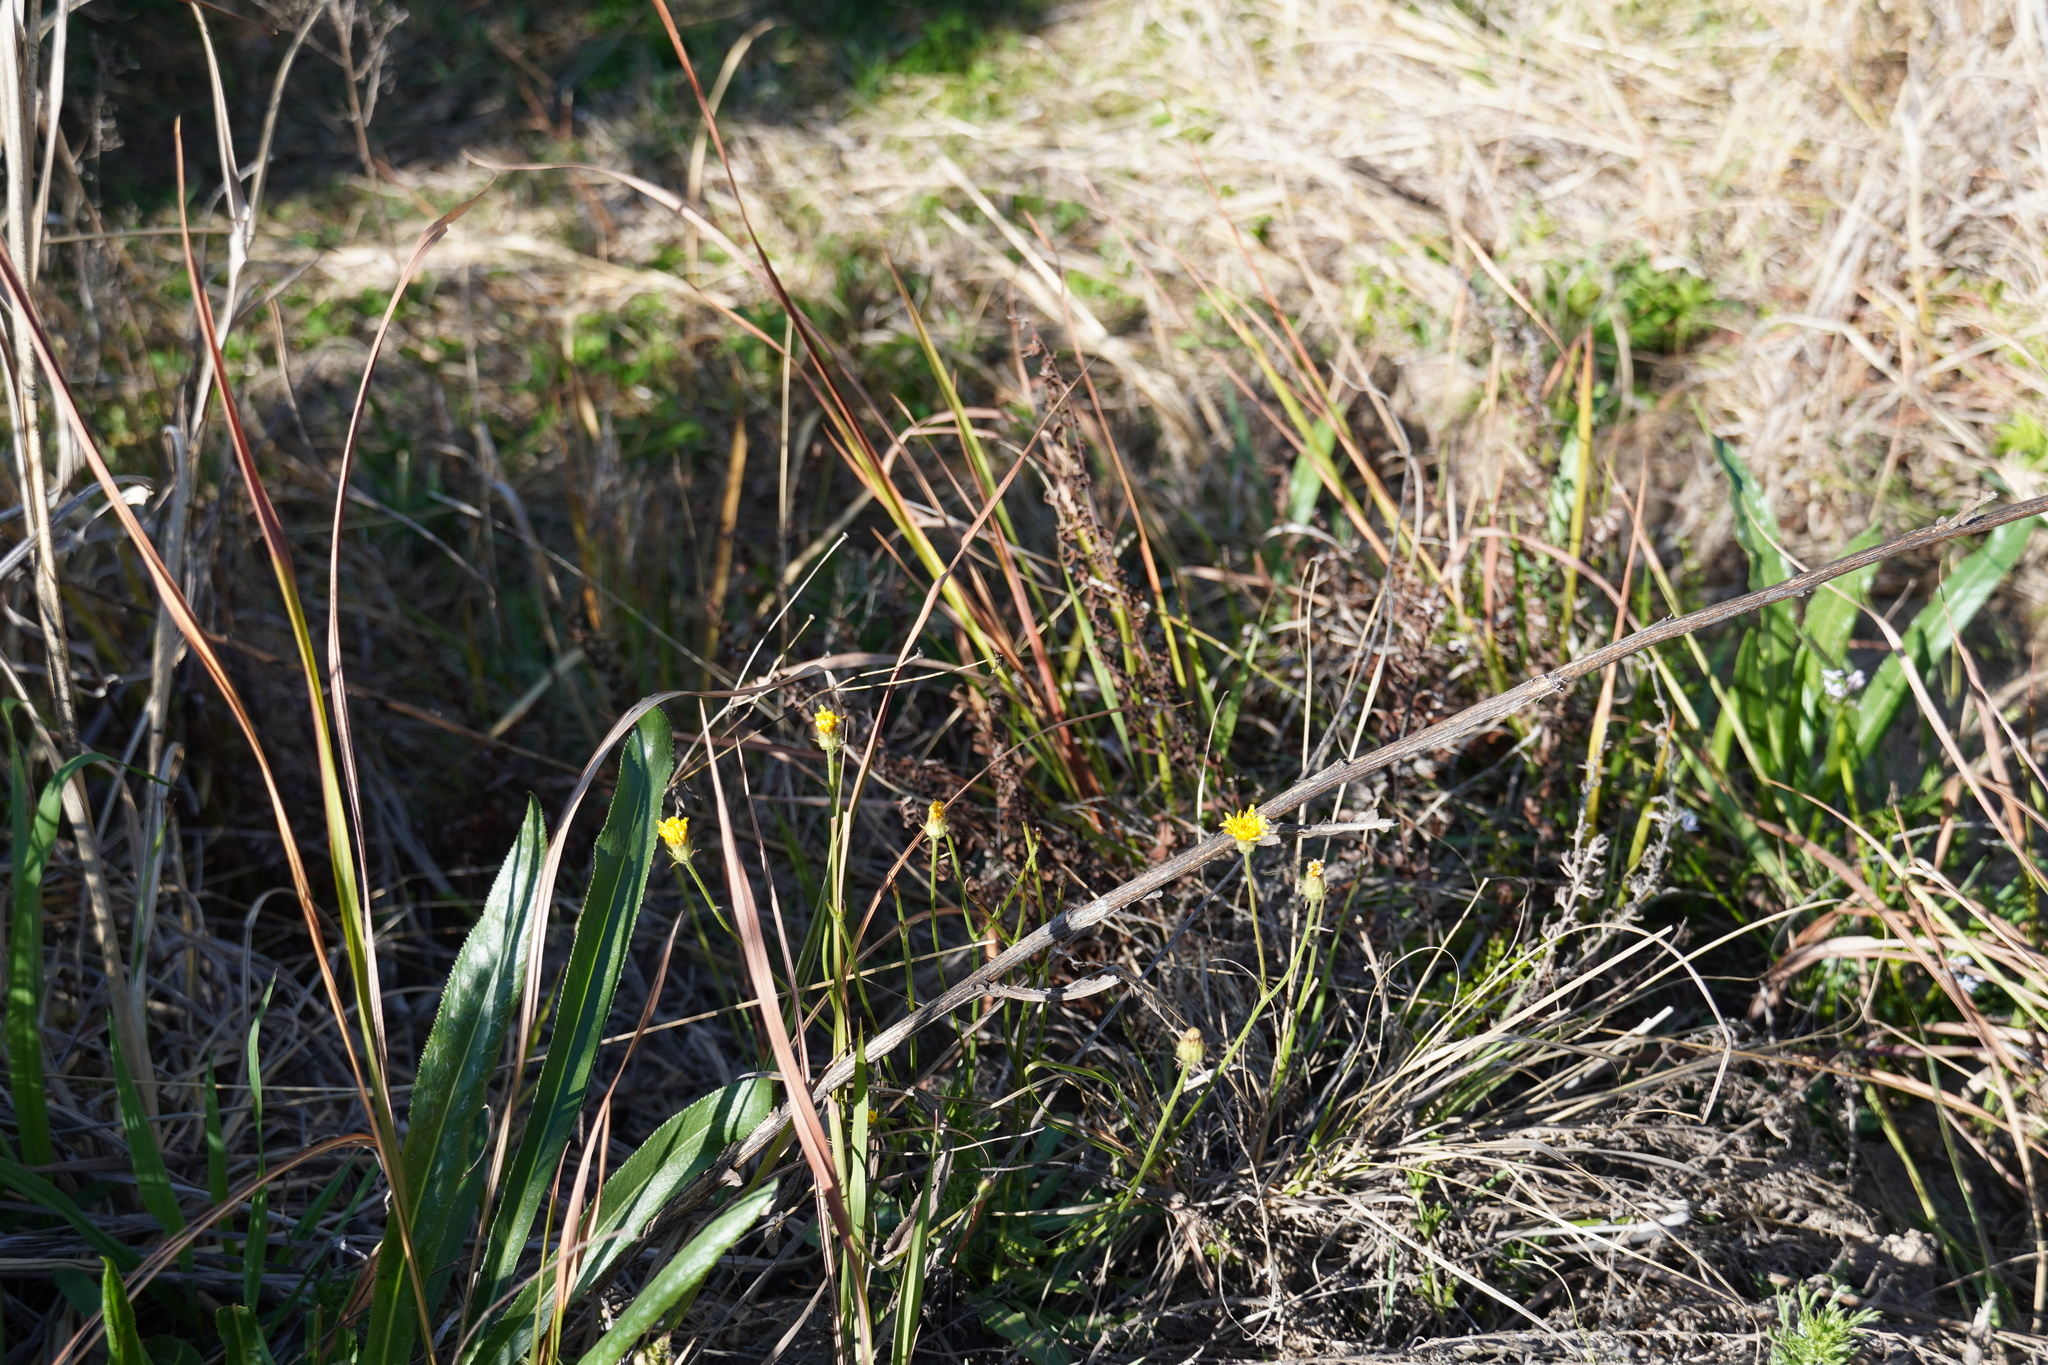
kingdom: Plantae
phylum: Tracheophyta
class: Magnoliopsida
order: Asterales
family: Asteraceae
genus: Crepis
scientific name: Crepis hypochoeridea
